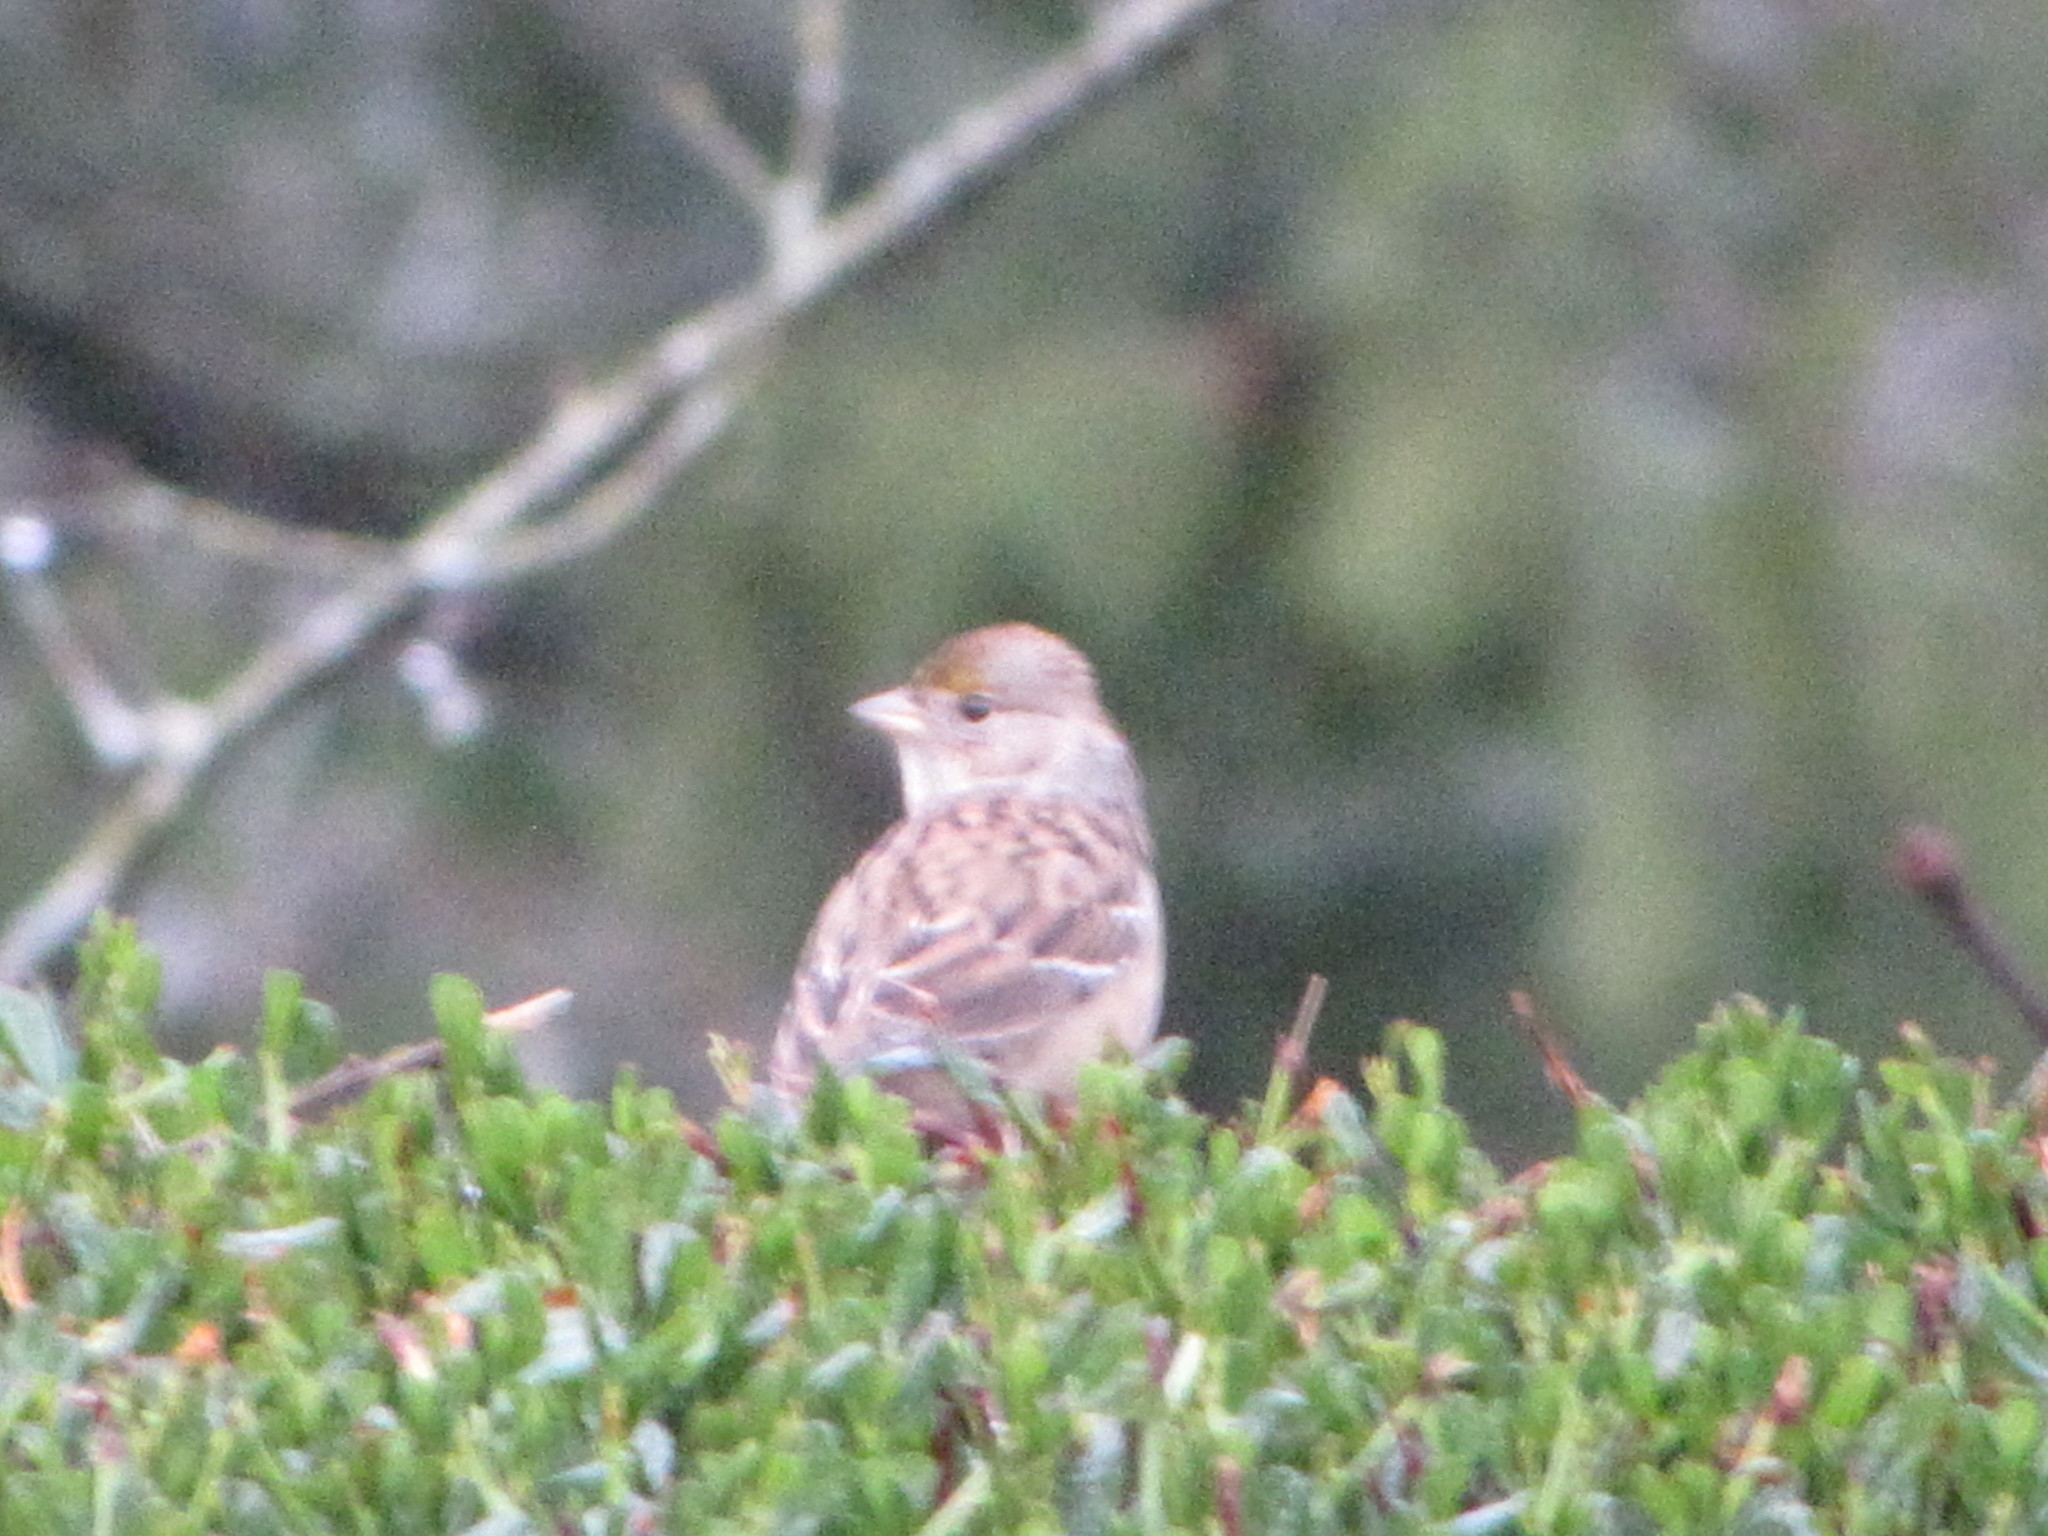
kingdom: Animalia
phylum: Chordata
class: Aves
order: Passeriformes
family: Passerellidae
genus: Zonotrichia
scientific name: Zonotrichia atricapilla
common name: Golden-crowned sparrow
